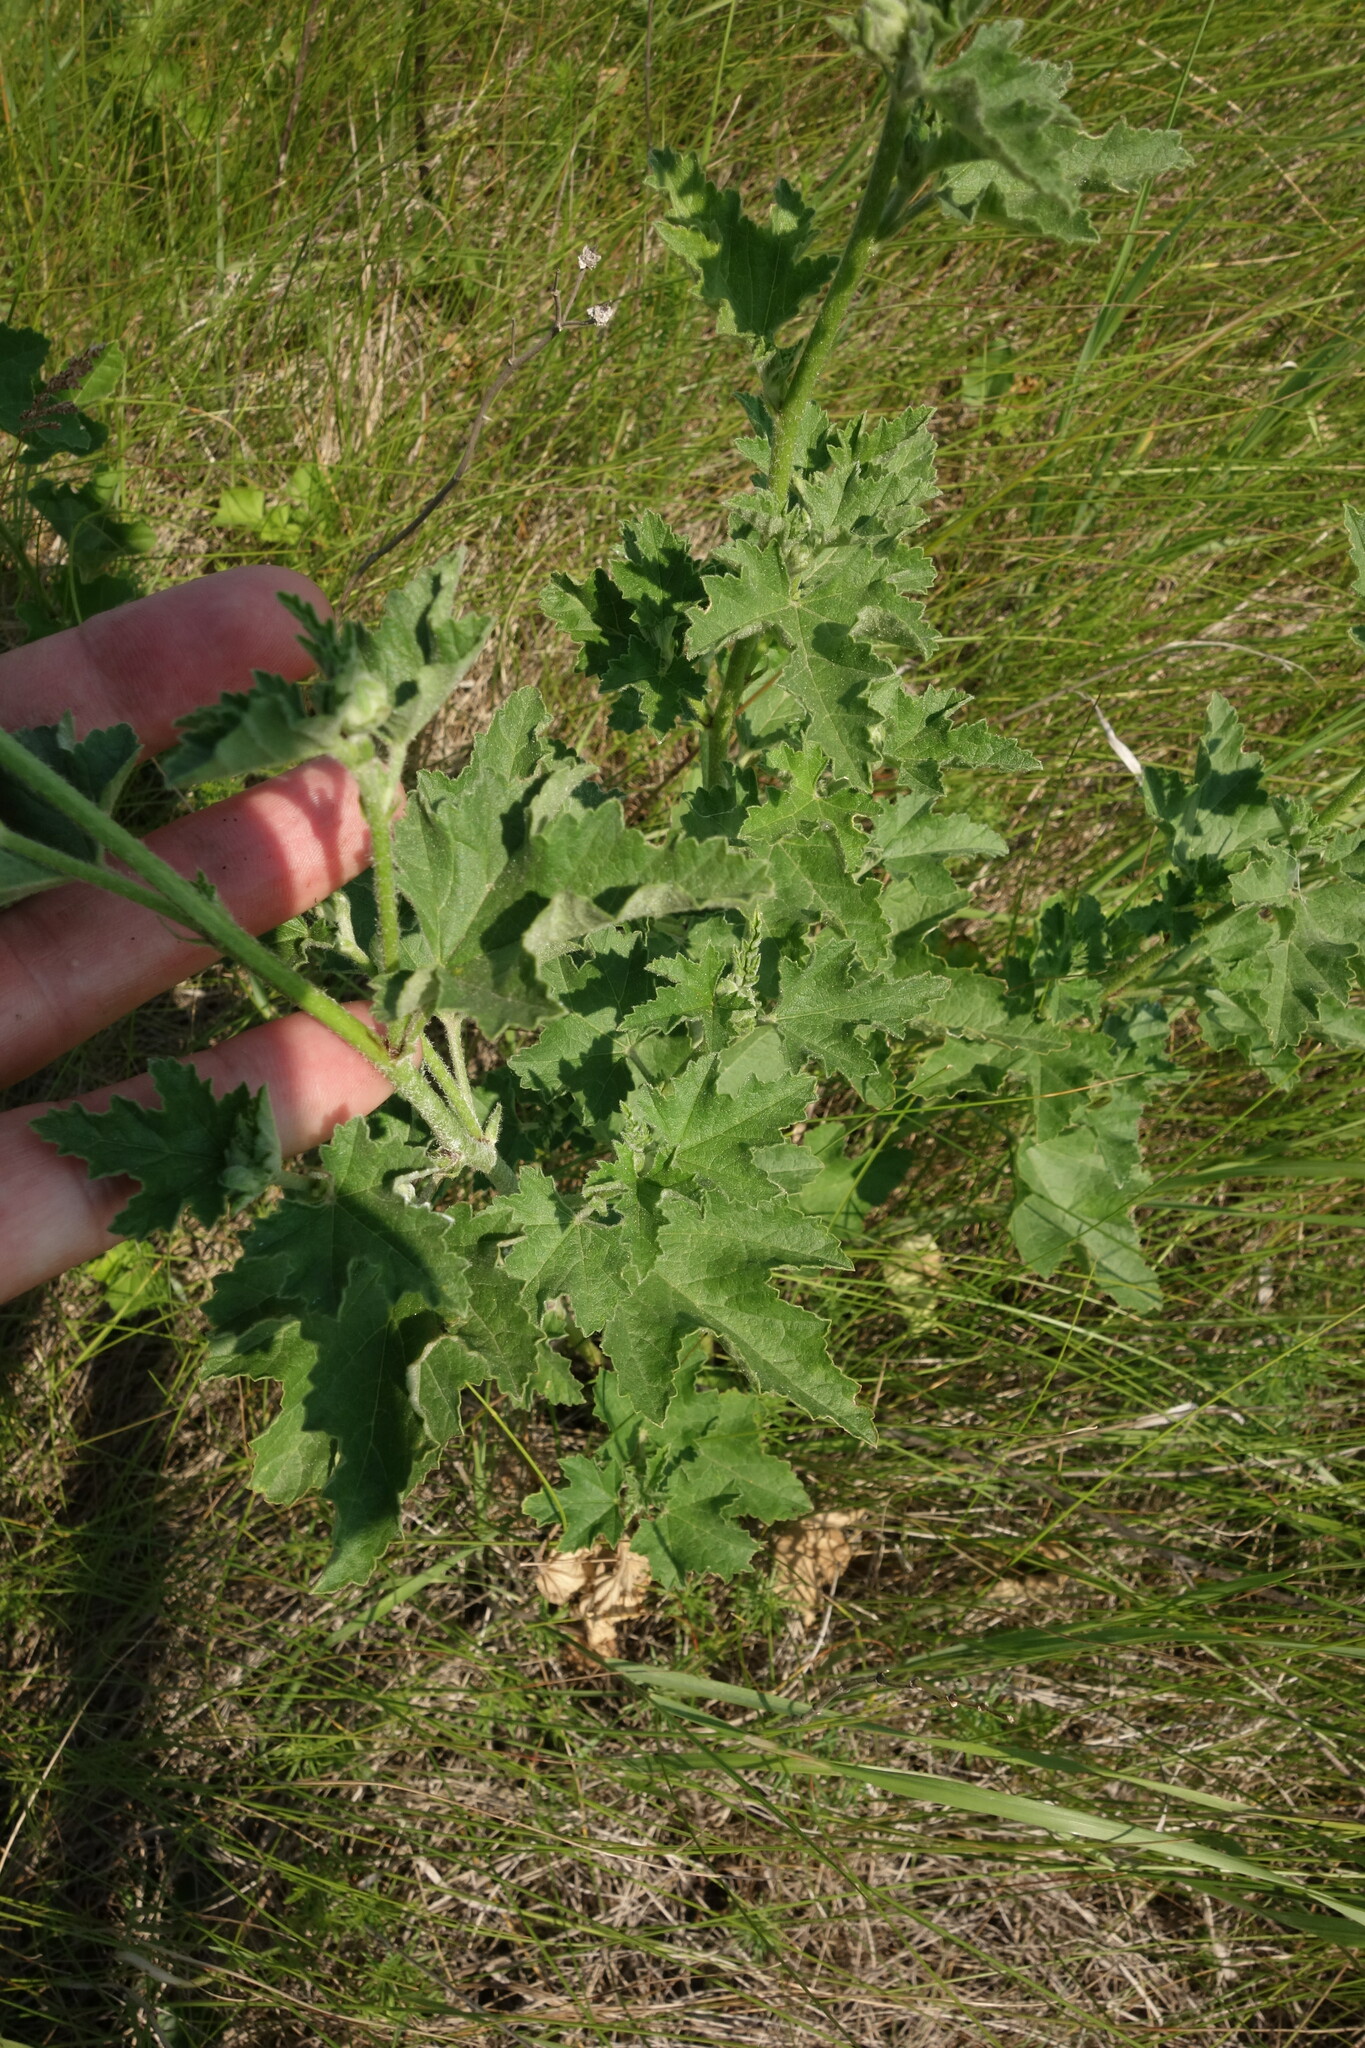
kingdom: Plantae
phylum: Tracheophyta
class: Magnoliopsida
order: Malvales
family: Malvaceae
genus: Malva
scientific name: Malva thuringiaca
